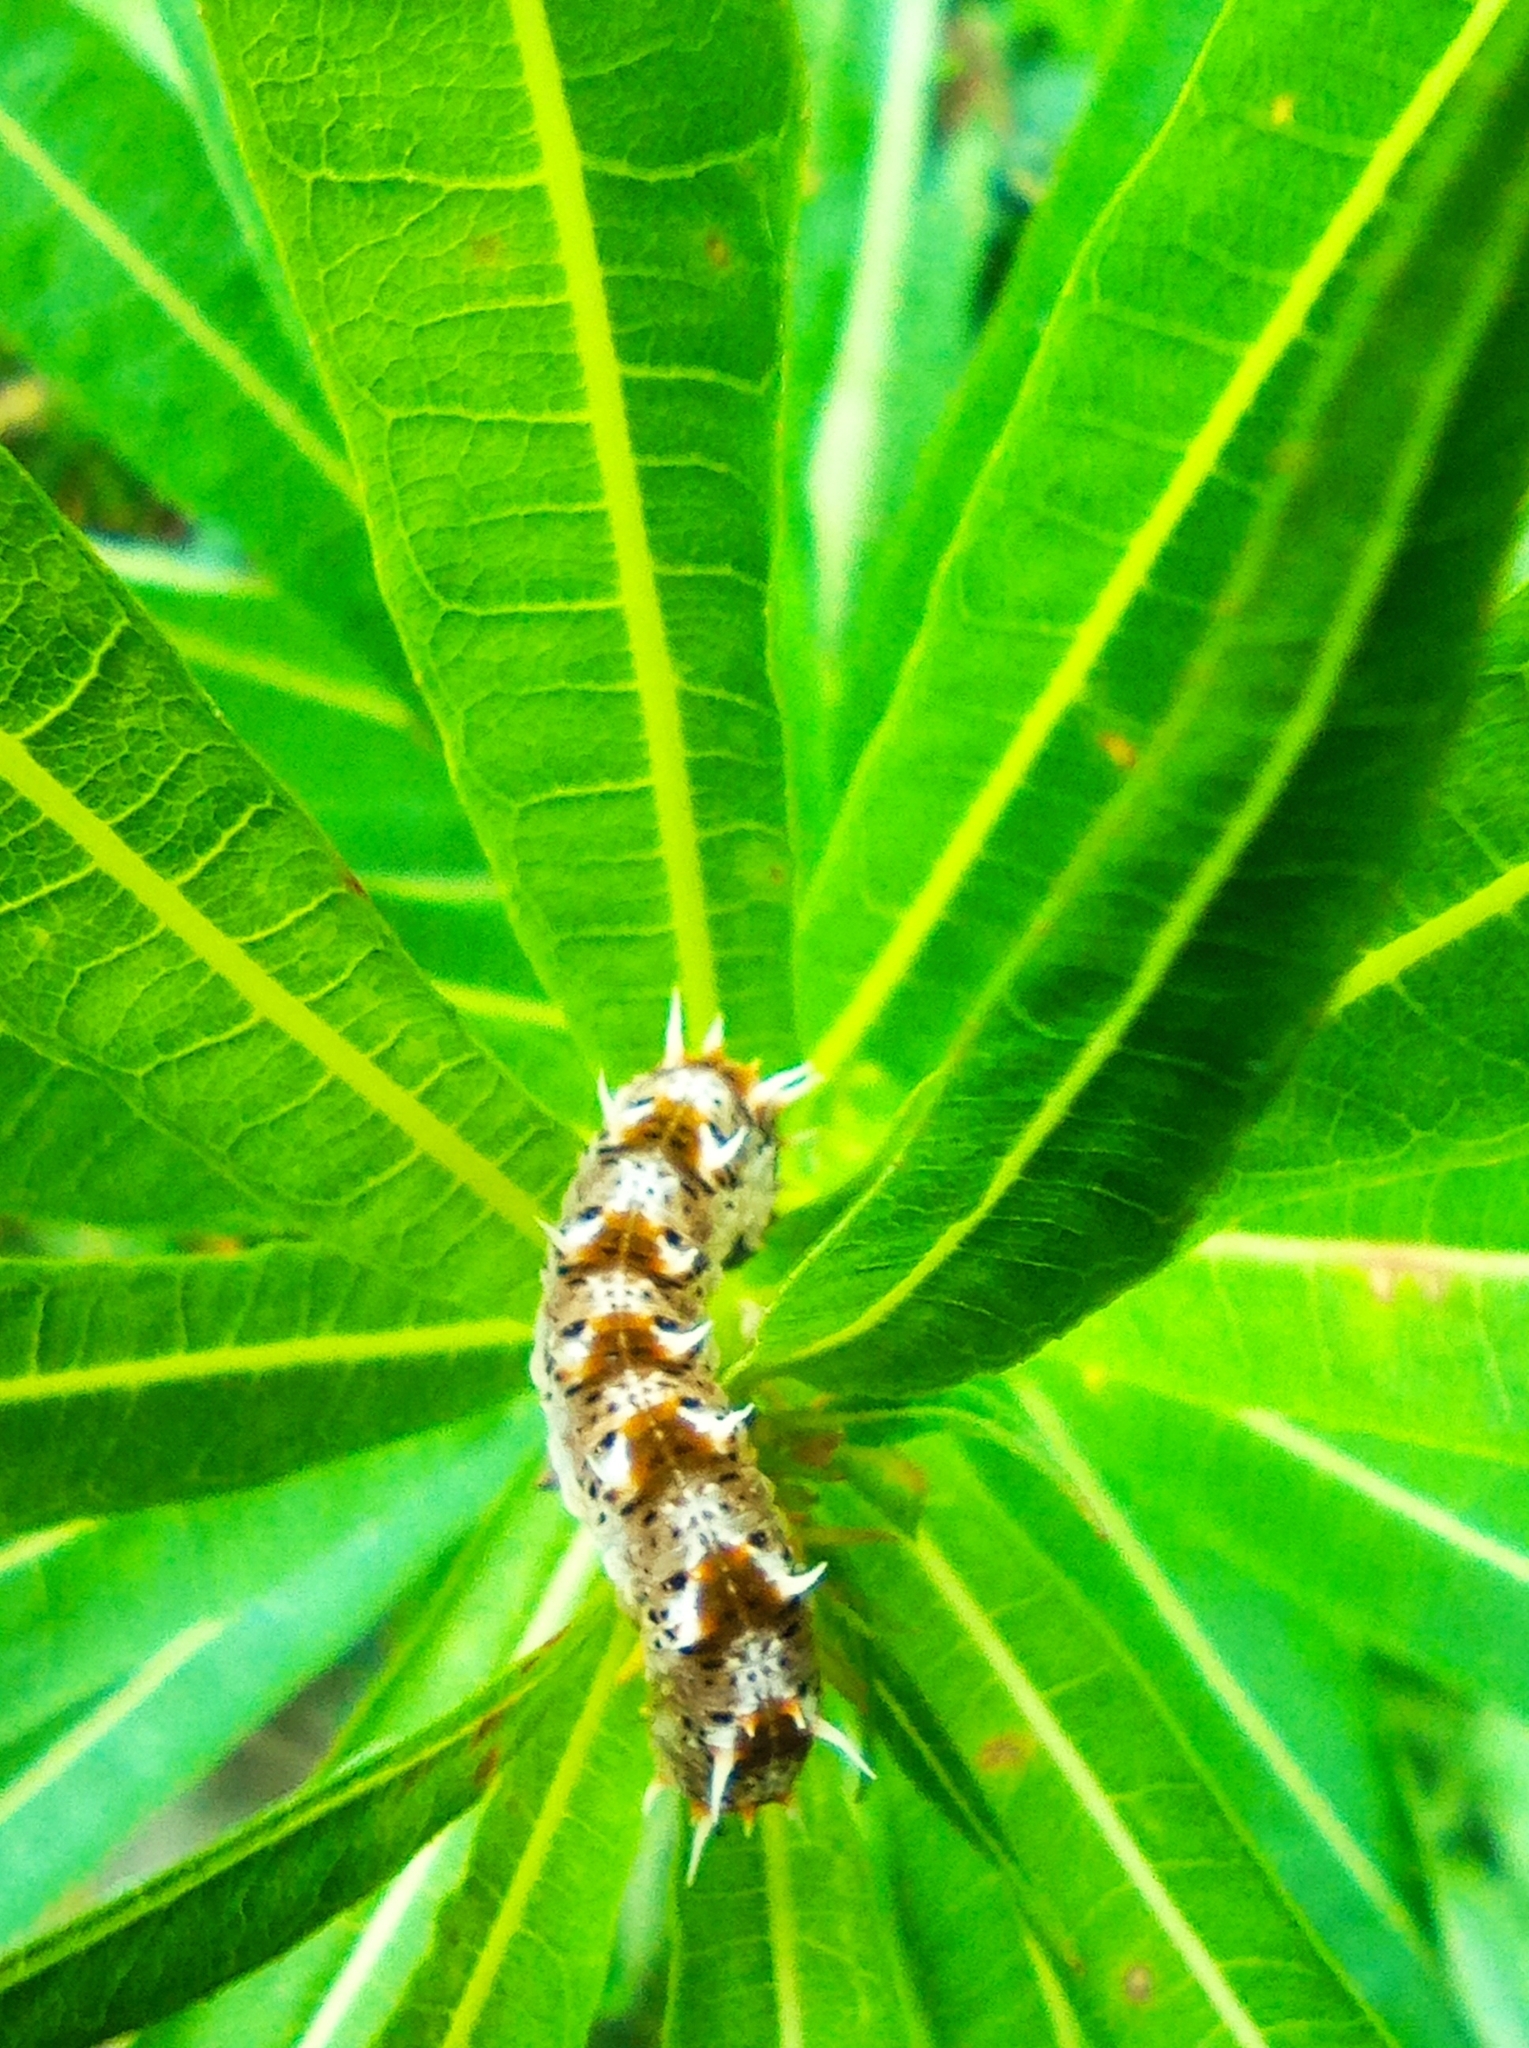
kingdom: Animalia
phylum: Arthropoda
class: Insecta
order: Hymenoptera
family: Tenthredinidae
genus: Siobla
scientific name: Siobla ruficornis
